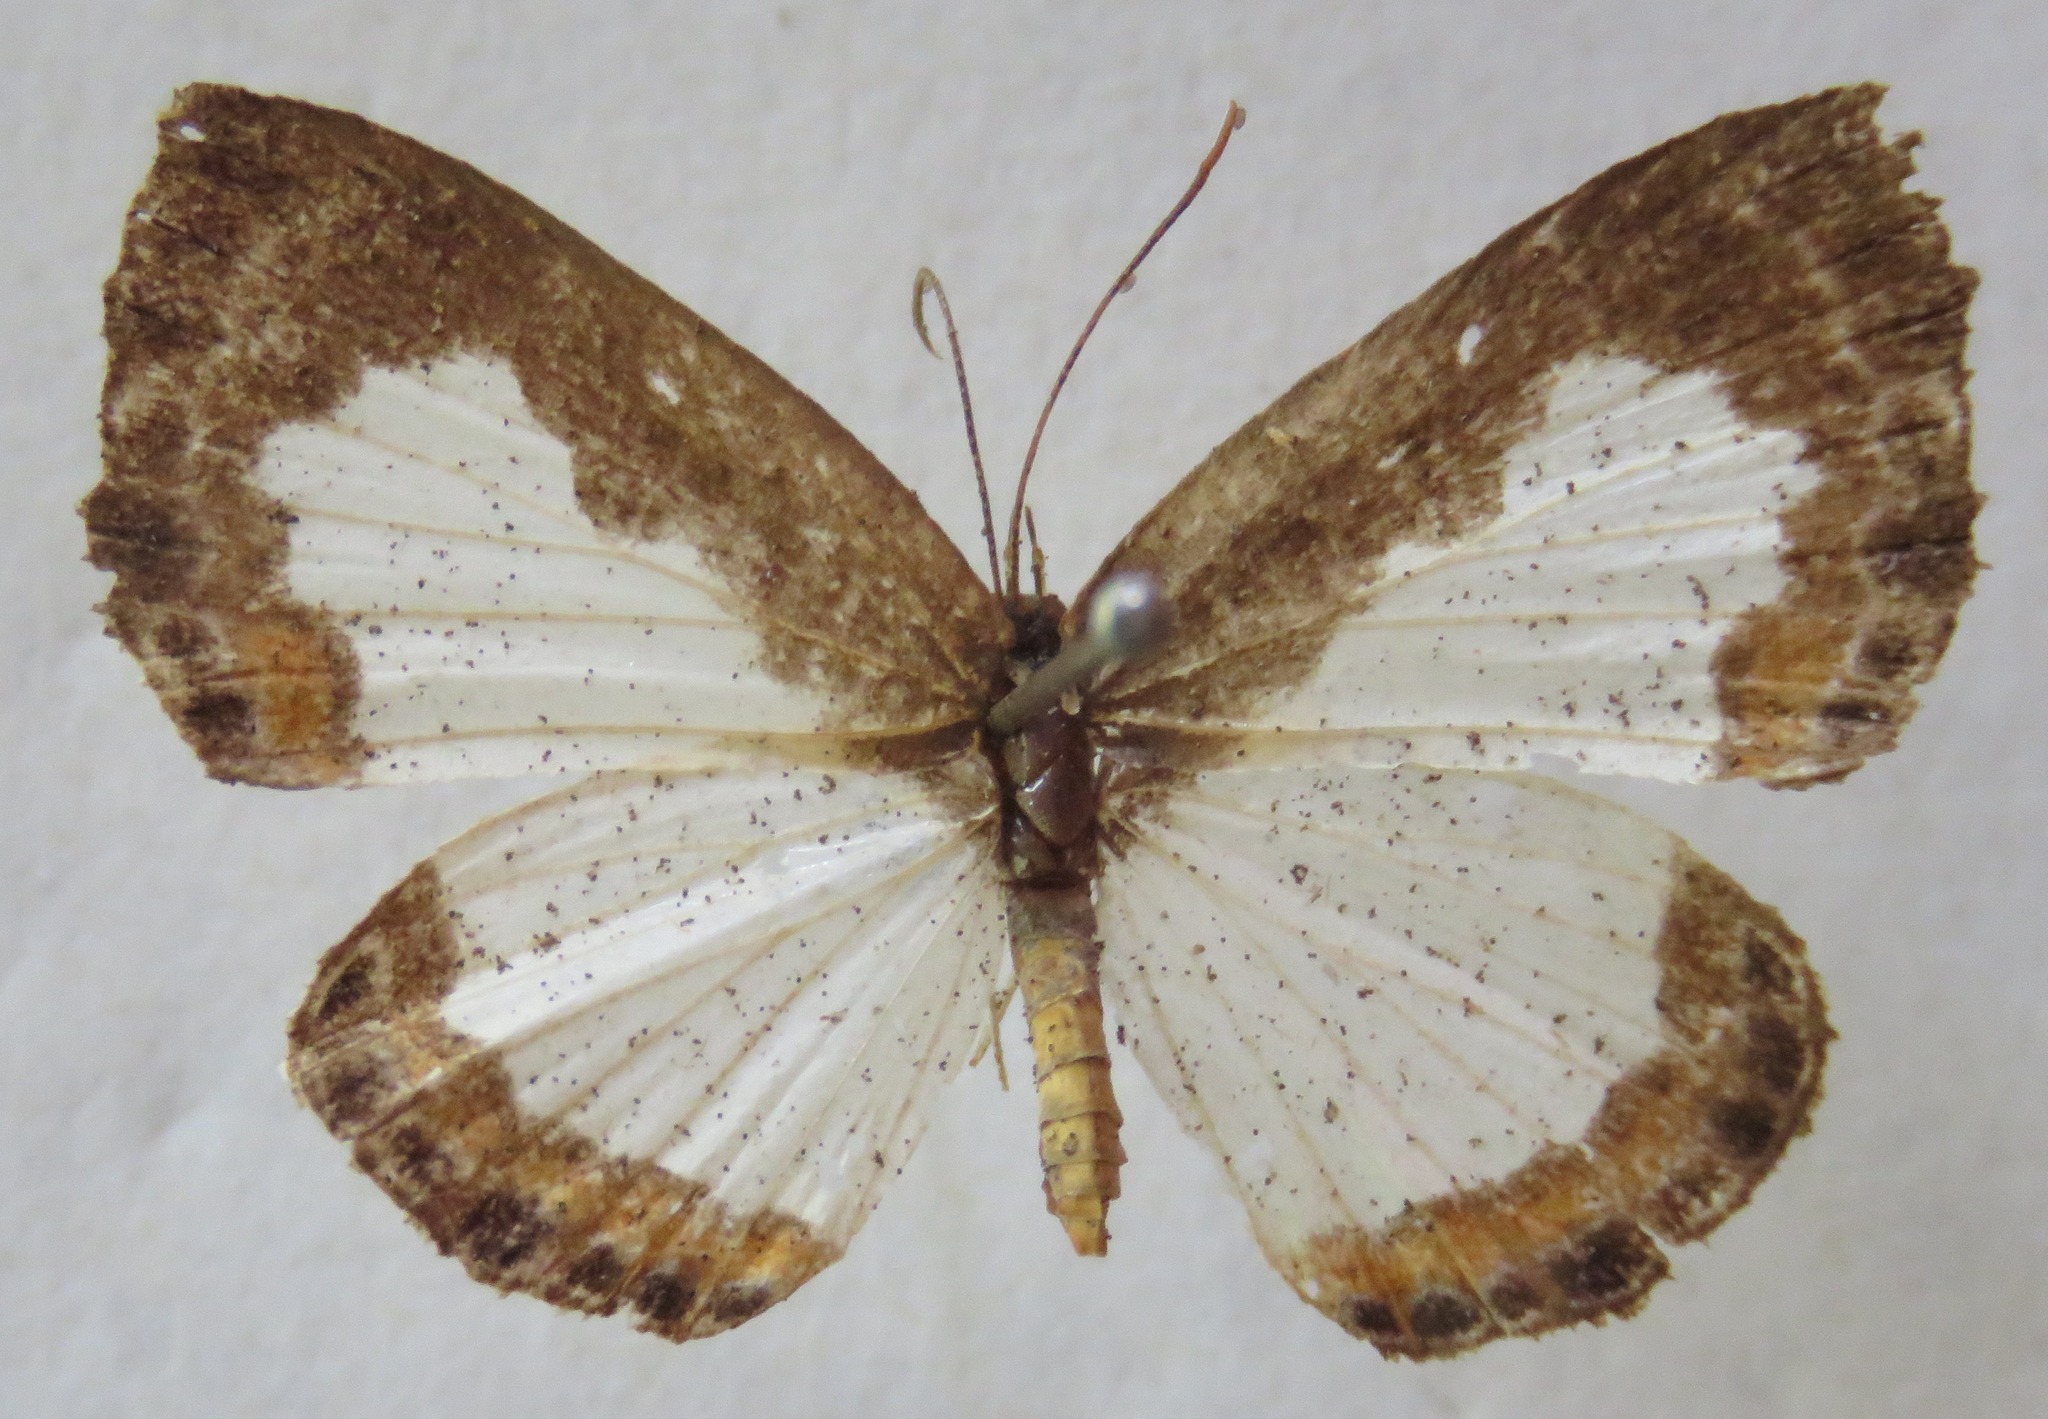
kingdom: Animalia
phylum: Arthropoda
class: Insecta
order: Lepidoptera
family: Riodinidae
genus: Juditha
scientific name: Juditha caucana
